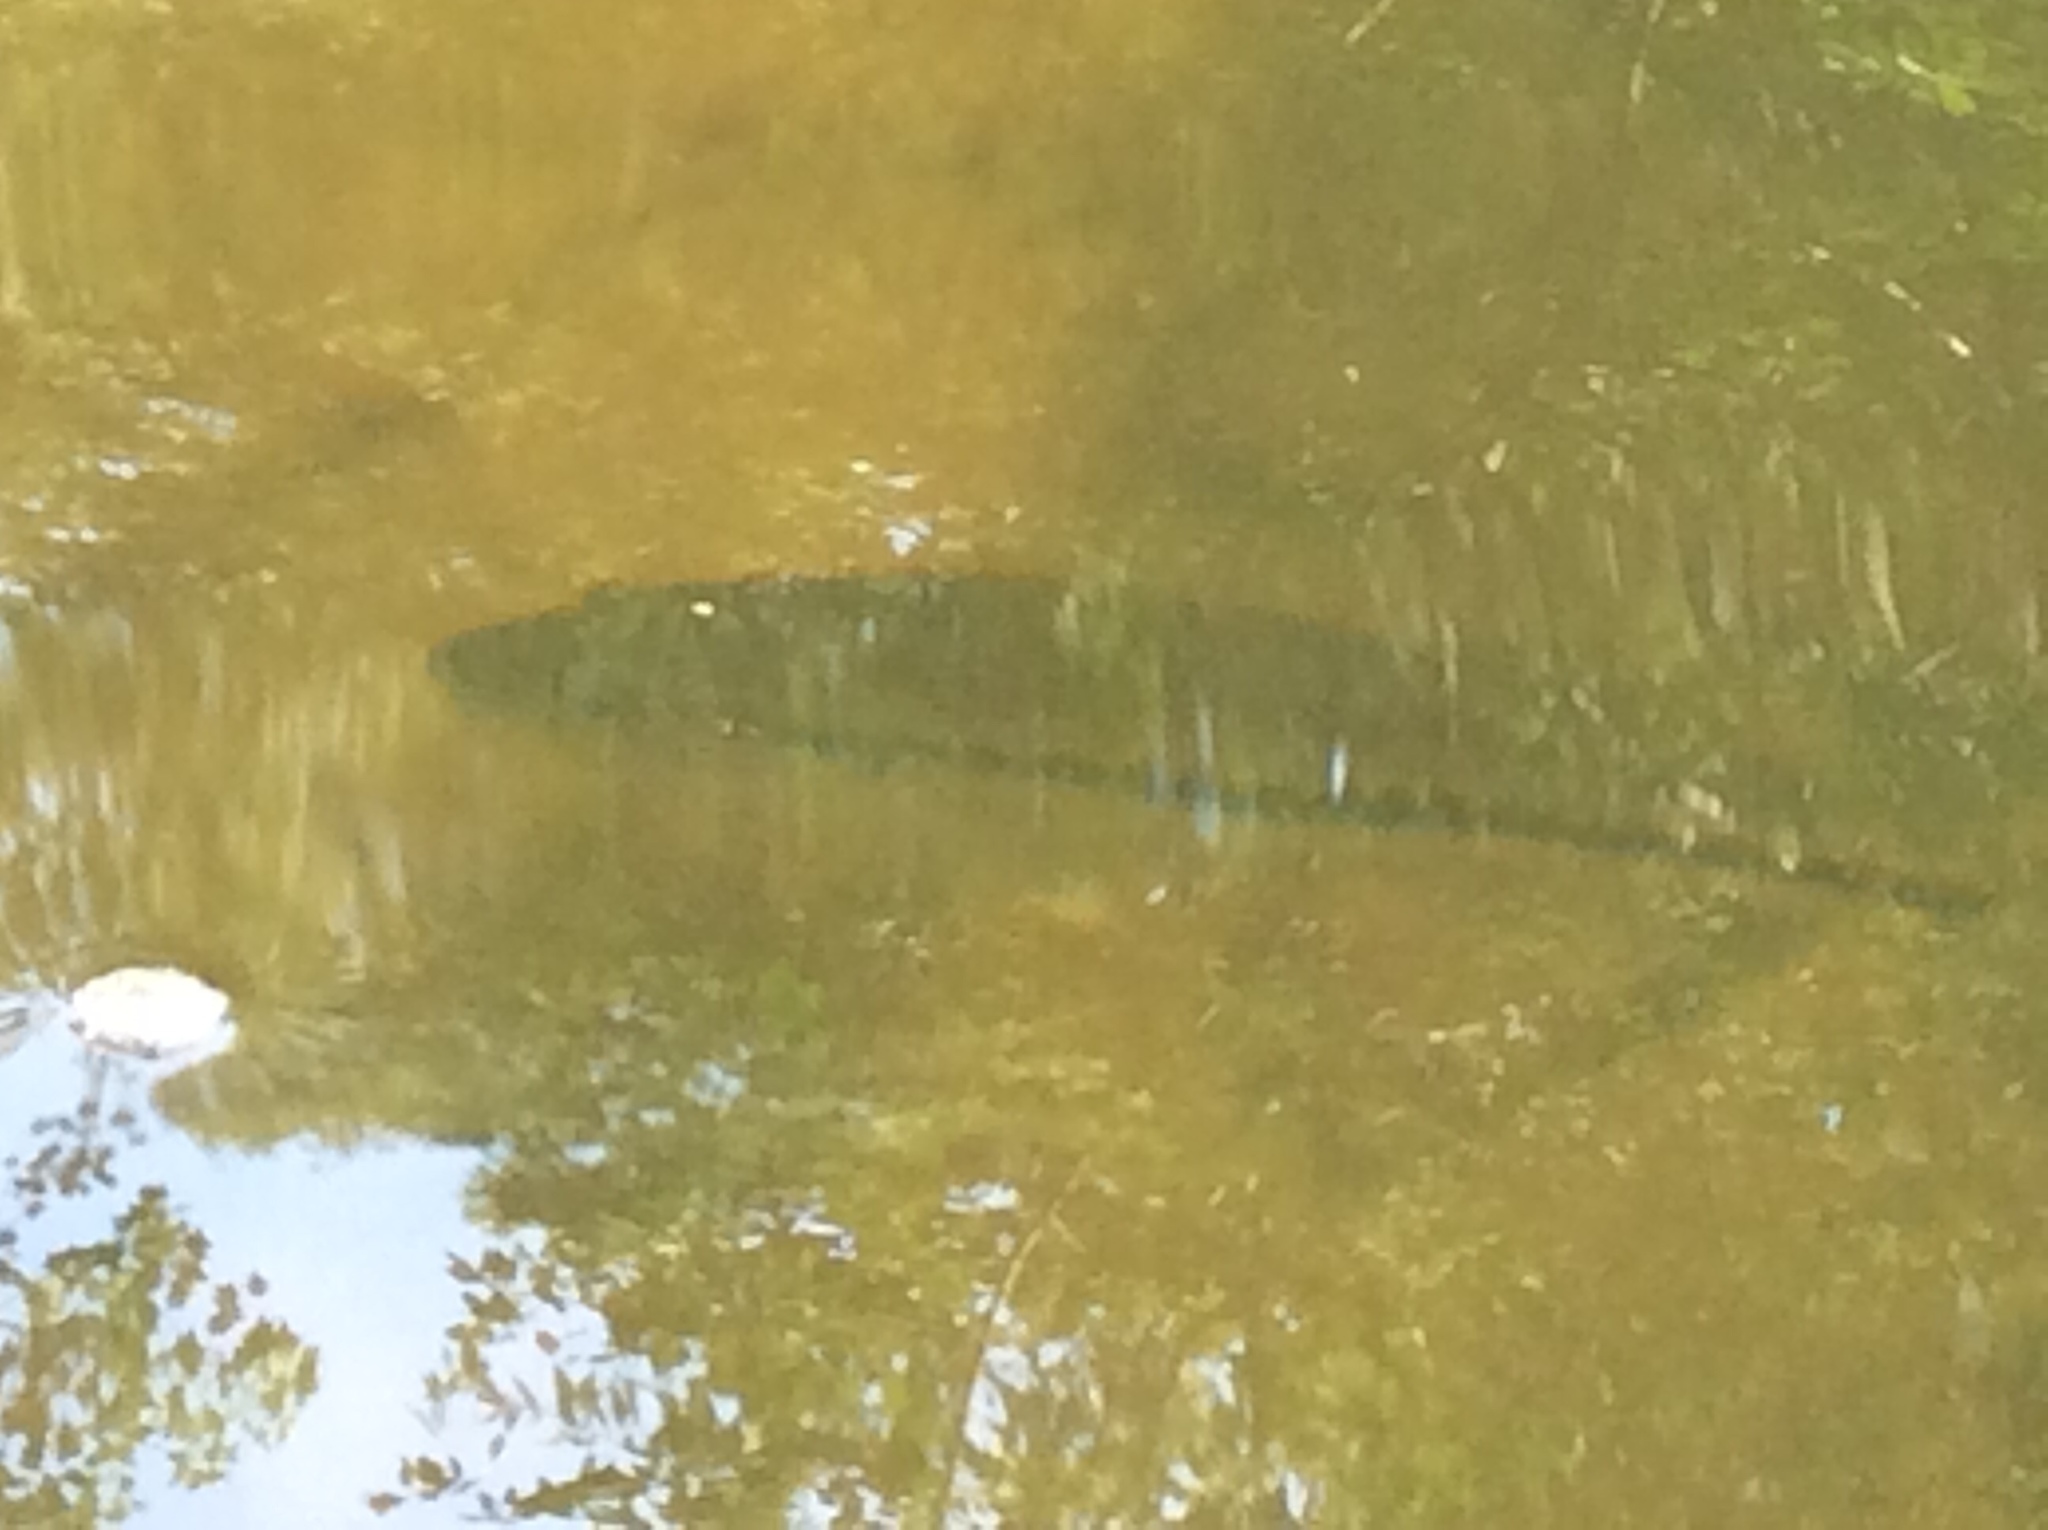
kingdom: Animalia
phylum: Chordata
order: Perciformes
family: Centrarchidae
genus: Micropterus
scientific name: Micropterus
